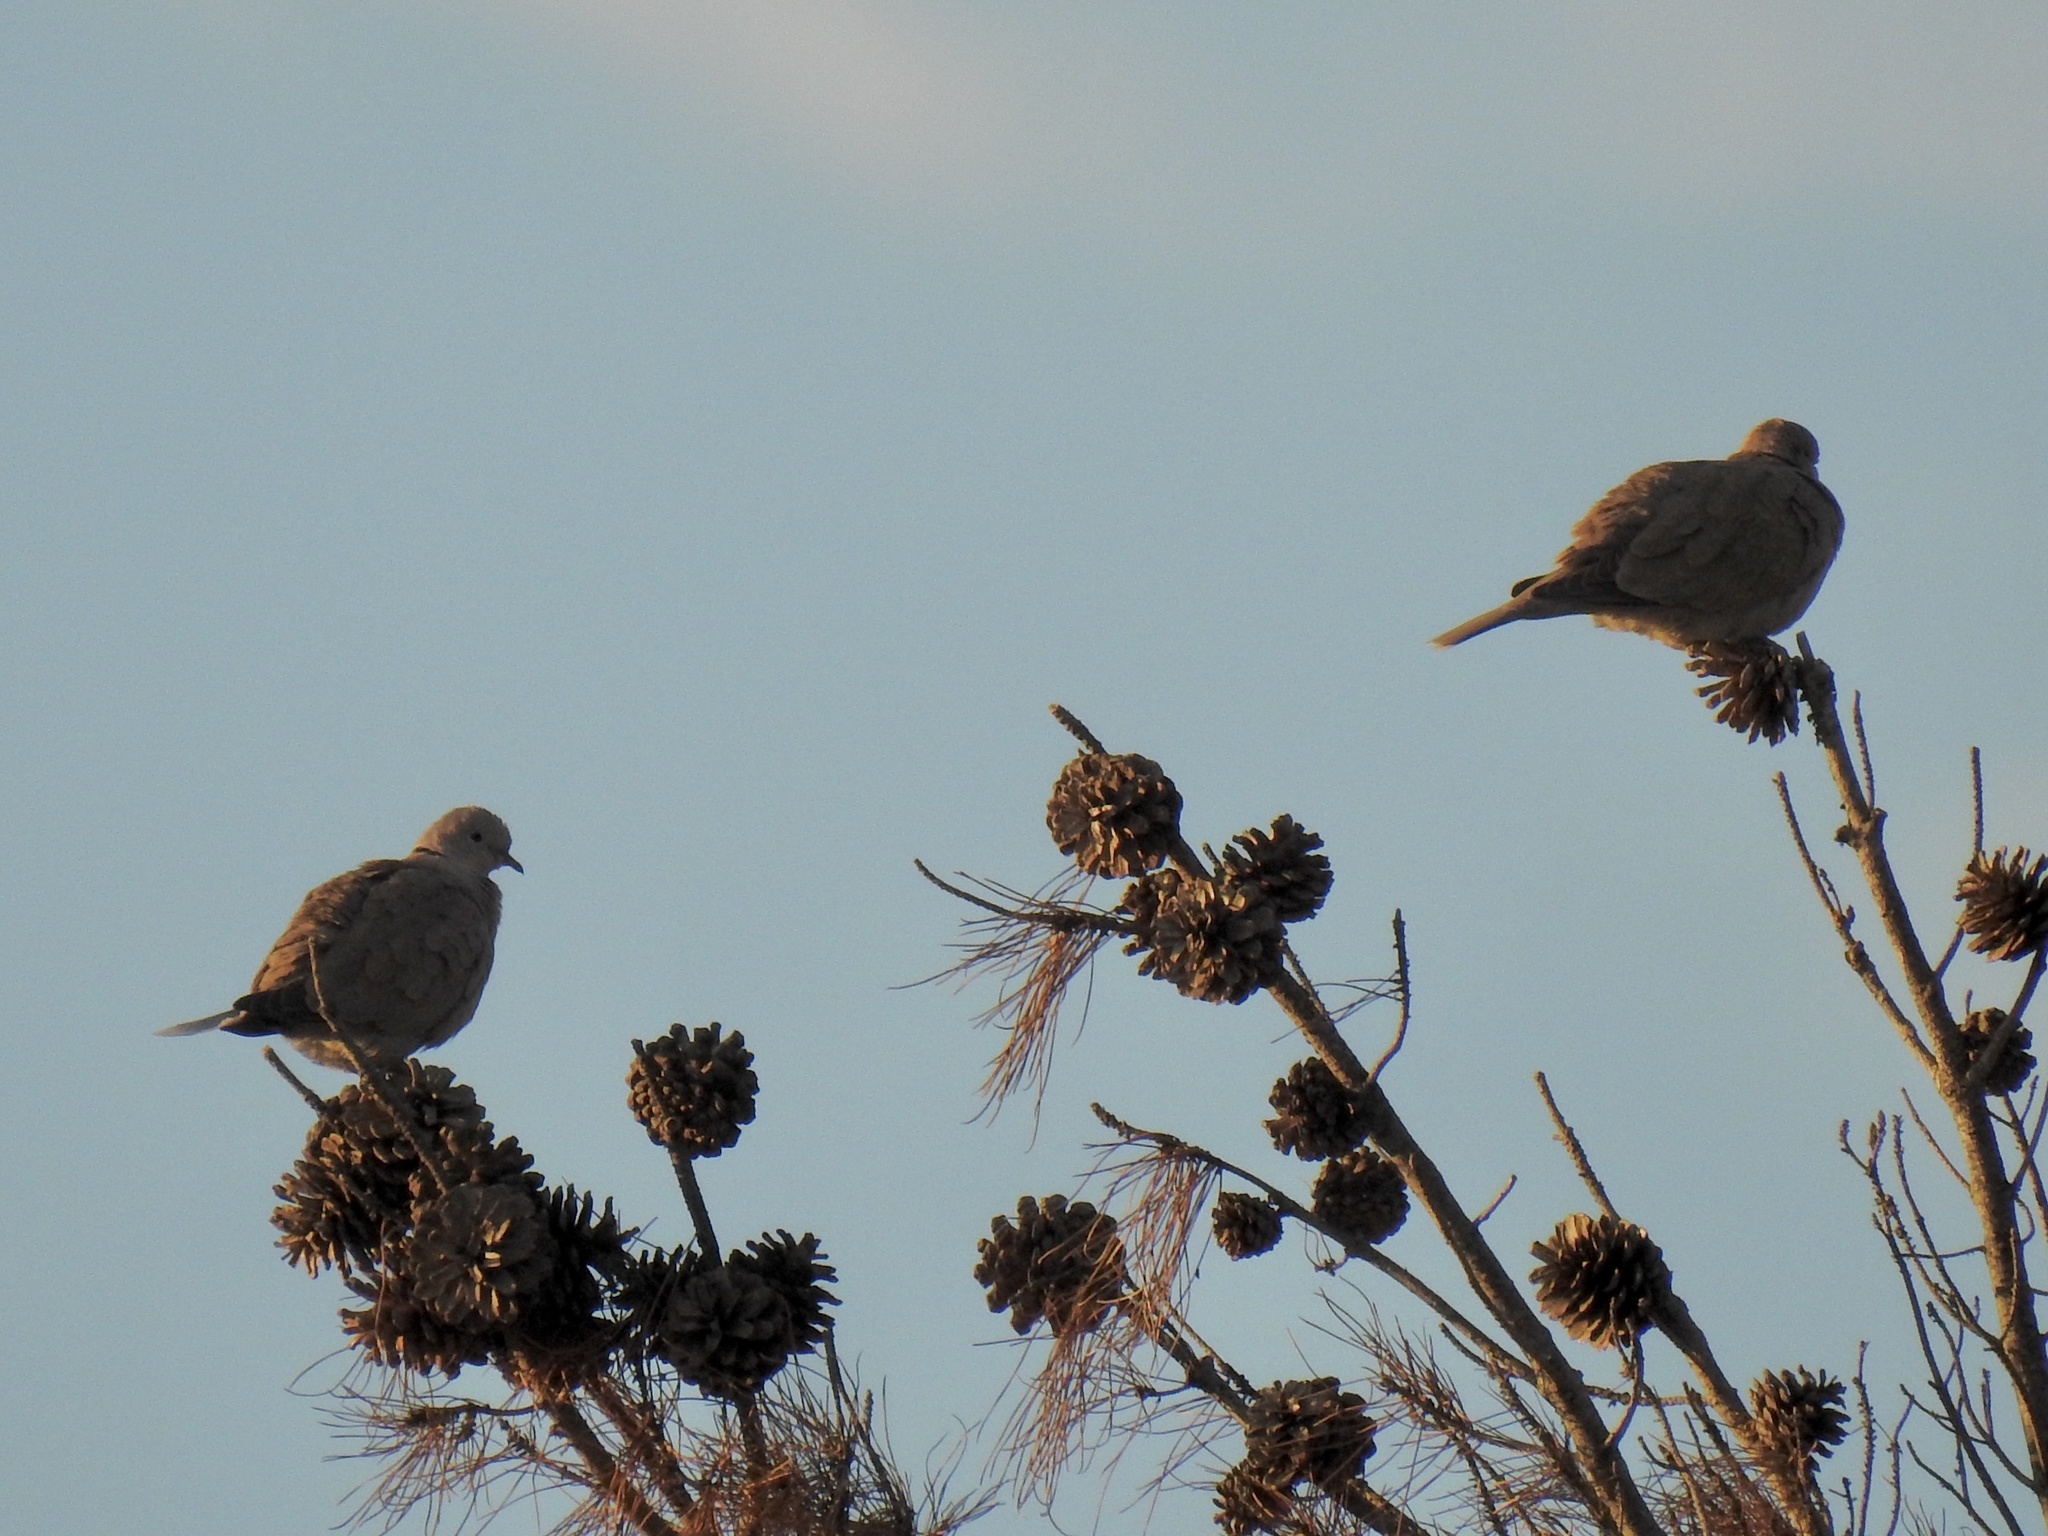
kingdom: Animalia
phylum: Chordata
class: Aves
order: Columbiformes
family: Columbidae
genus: Streptopelia
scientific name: Streptopelia decaocto
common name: Eurasian collared dove
